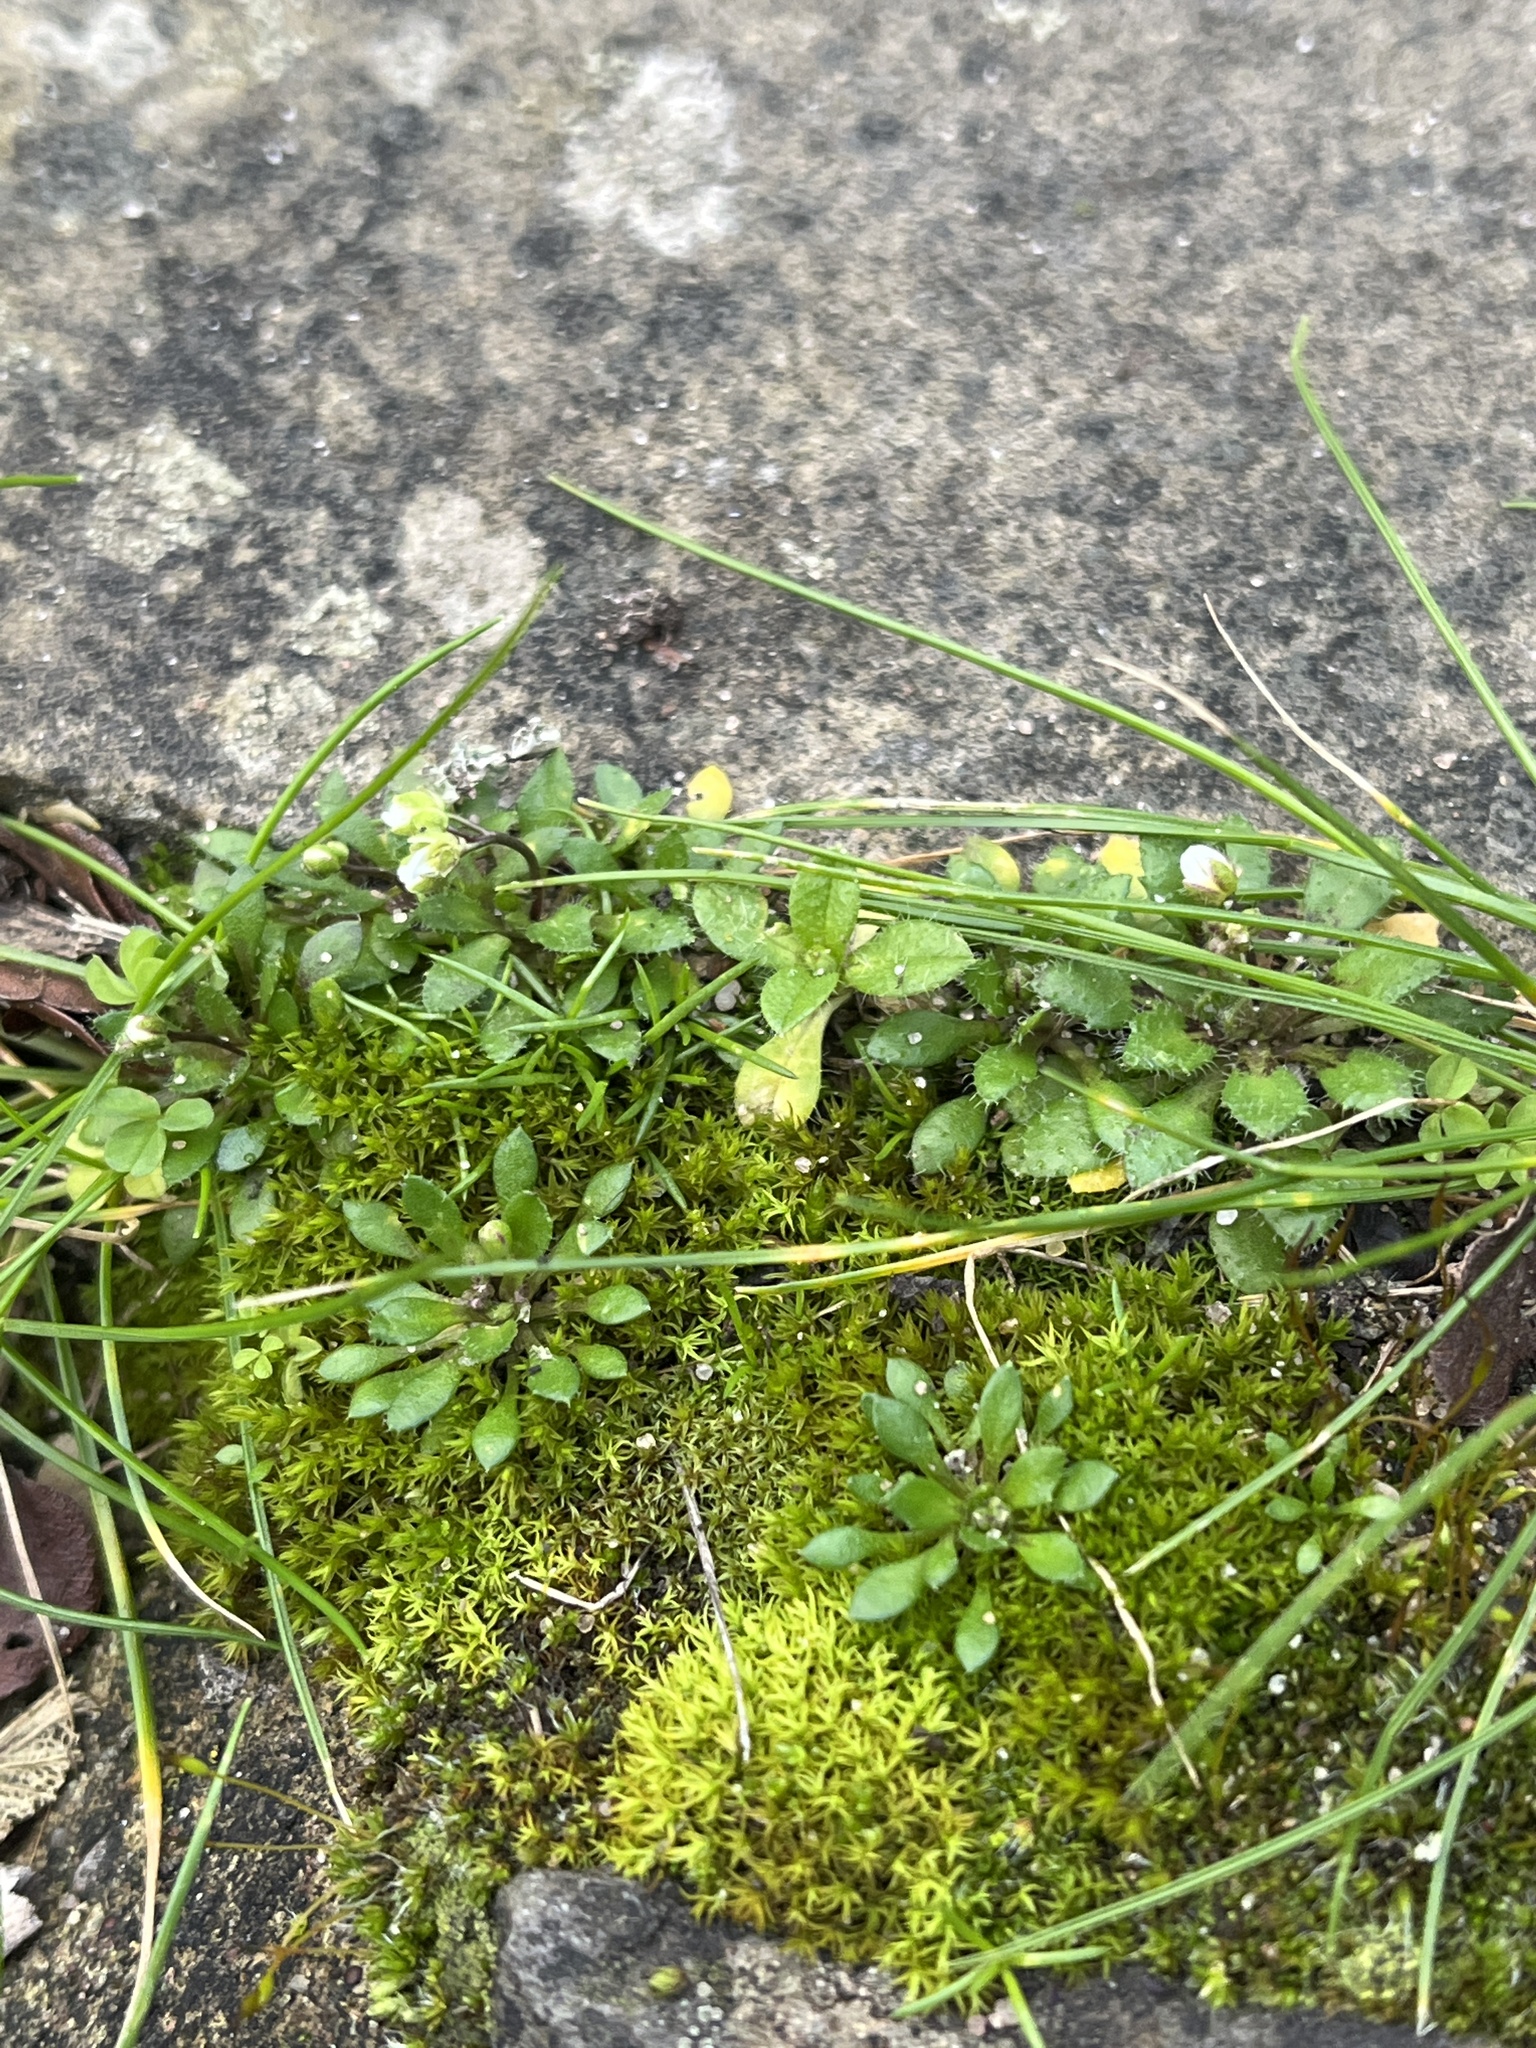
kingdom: Plantae
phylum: Tracheophyta
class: Magnoliopsida
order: Brassicales
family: Brassicaceae
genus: Draba
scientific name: Draba verna
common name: Spring draba
